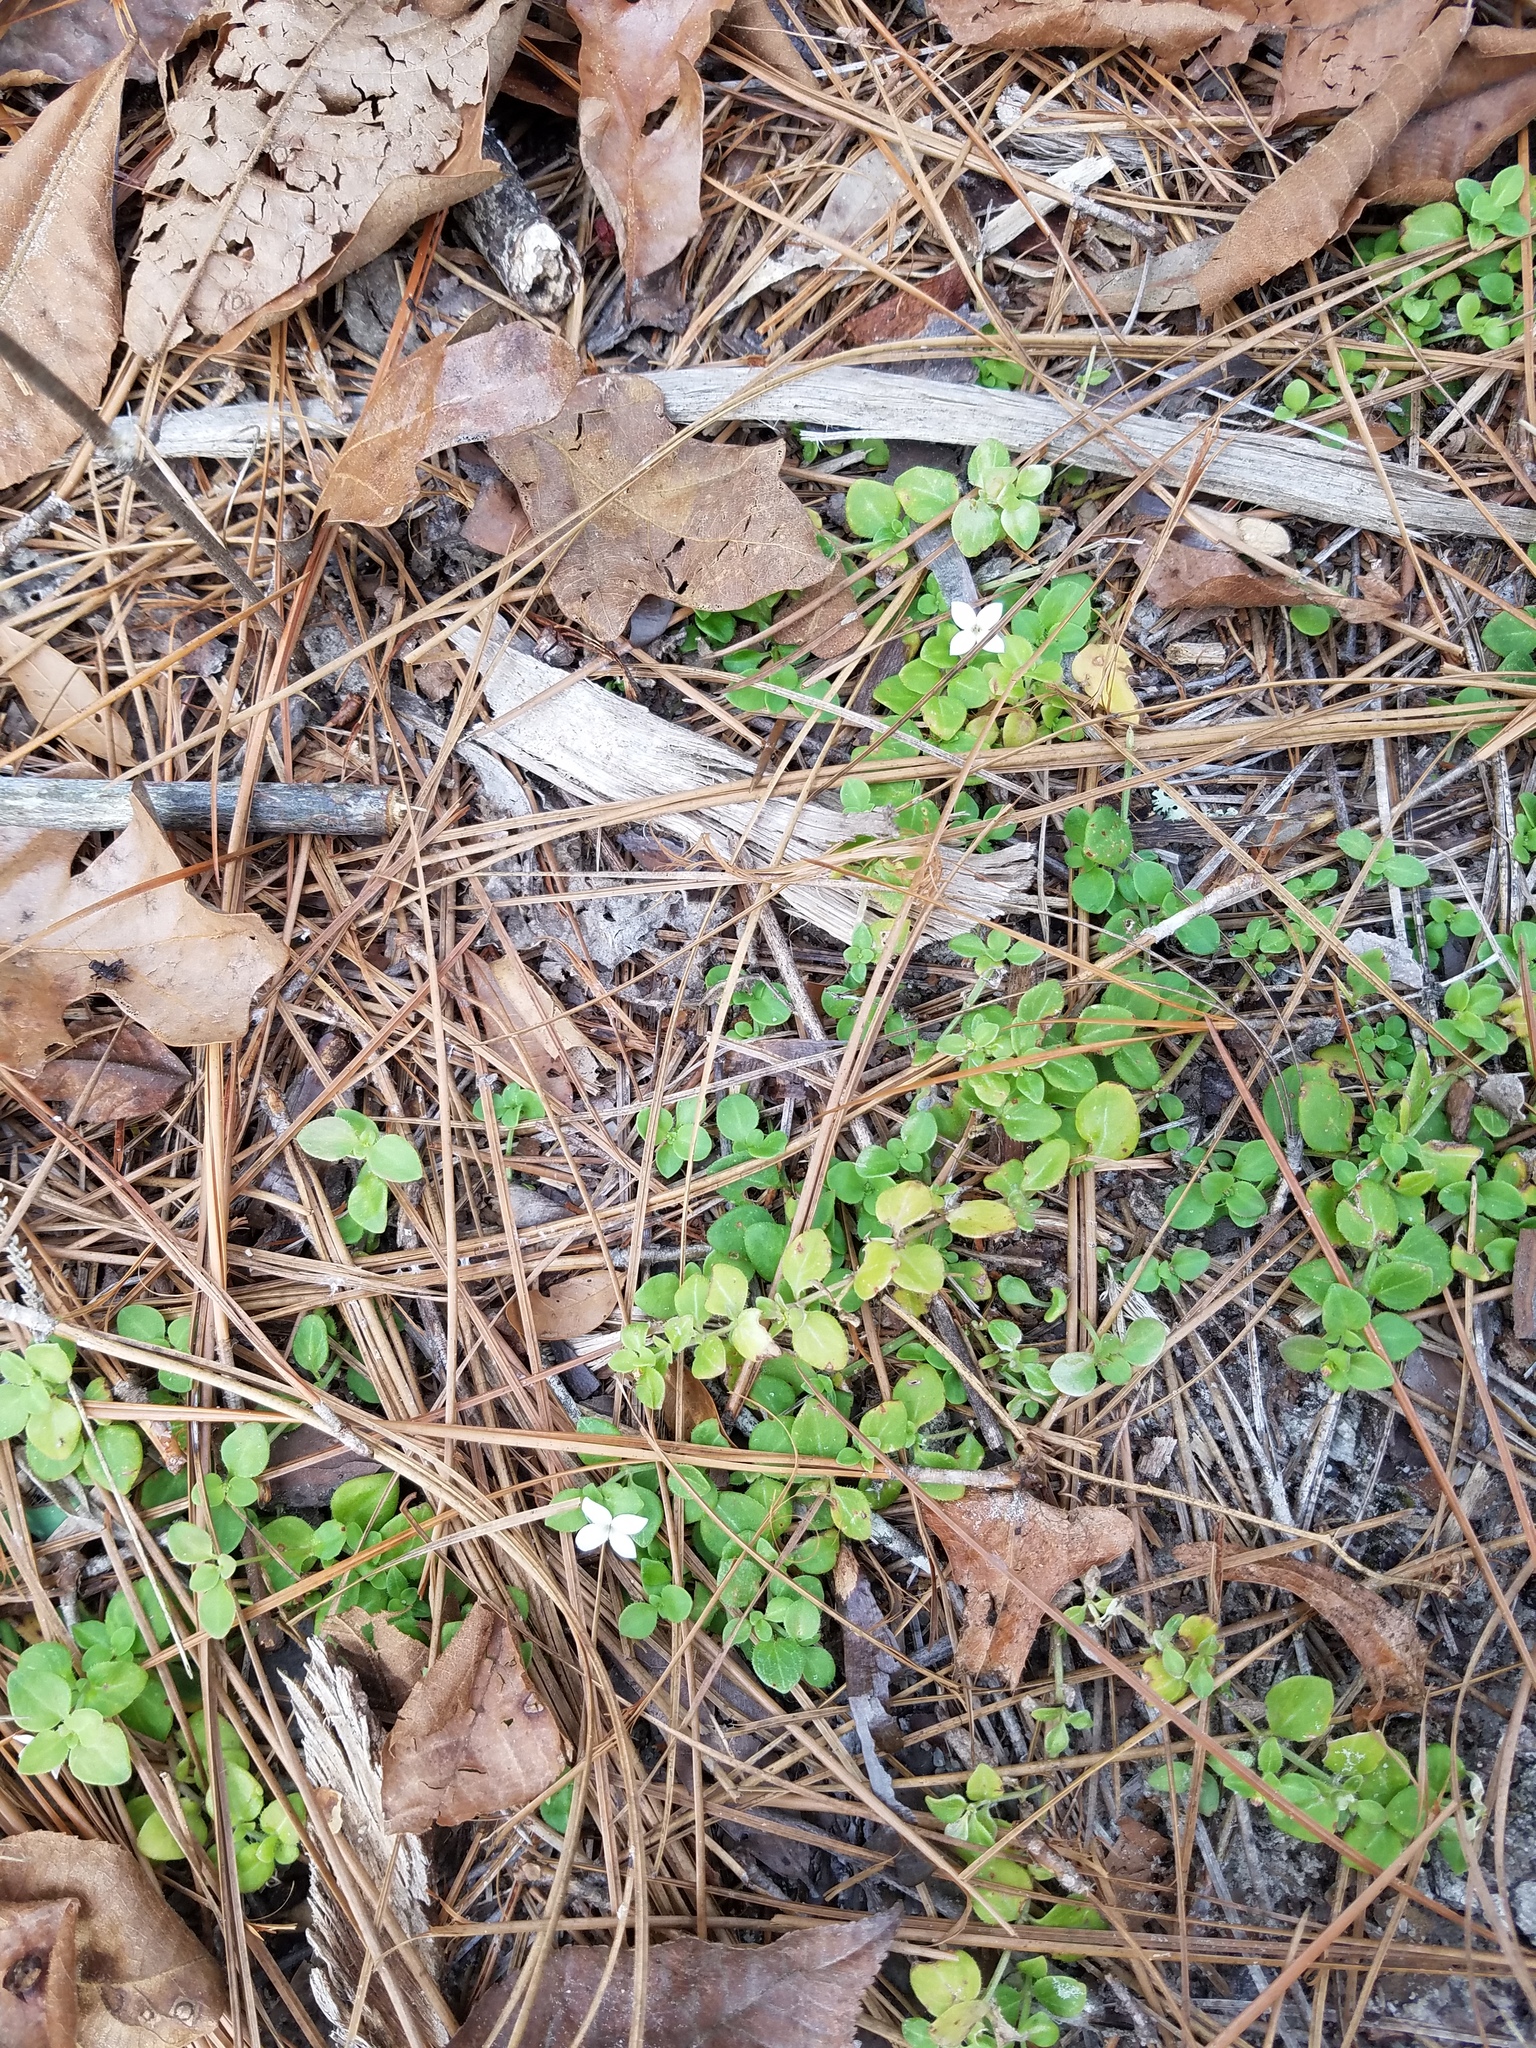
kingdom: Plantae
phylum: Tracheophyta
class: Magnoliopsida
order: Gentianales
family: Rubiaceae
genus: Houstonia
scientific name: Houstonia procumbens
